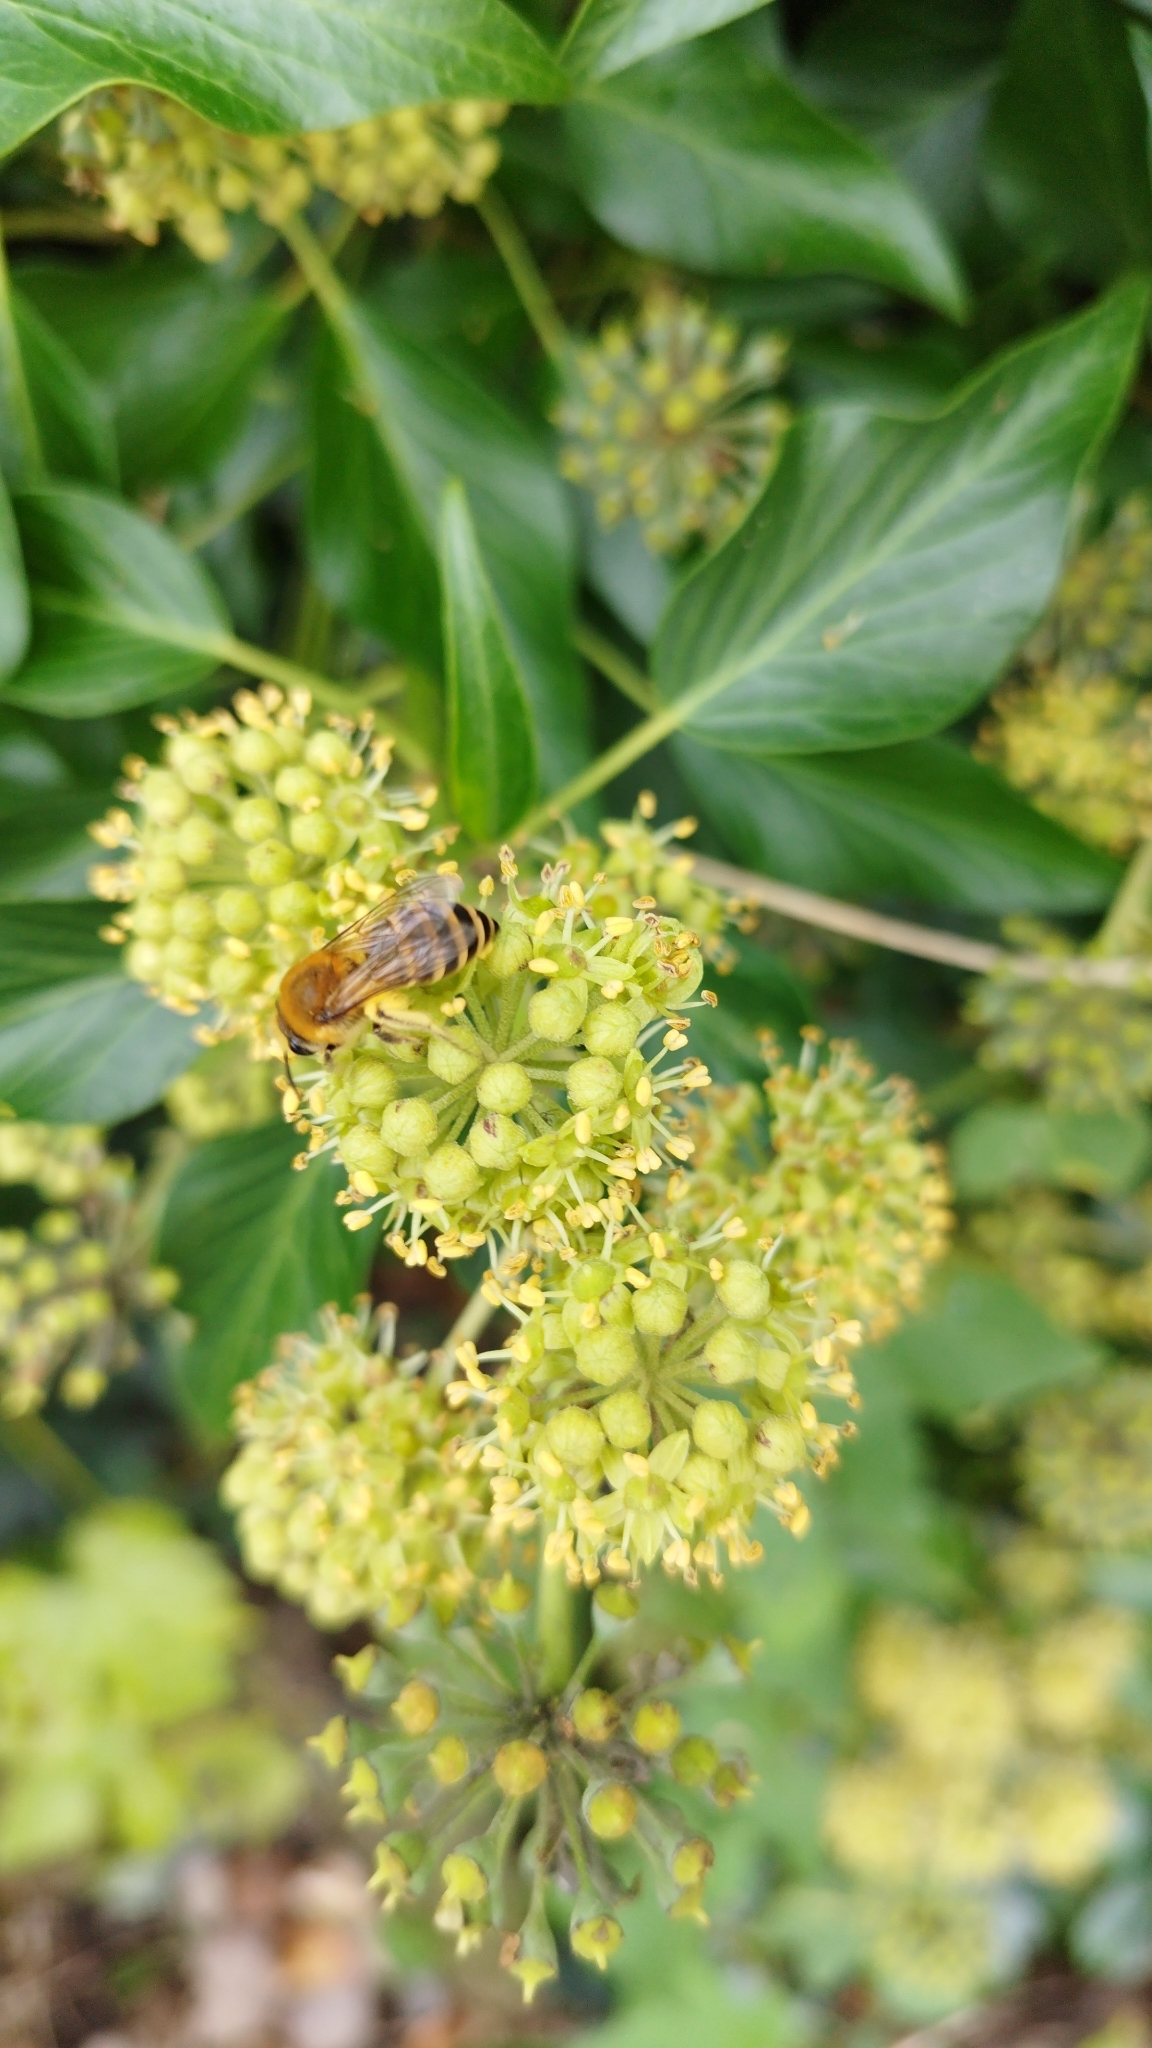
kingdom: Animalia
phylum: Arthropoda
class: Insecta
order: Hymenoptera
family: Colletidae
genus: Colletes
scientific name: Colletes hederae
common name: Ivy bee
